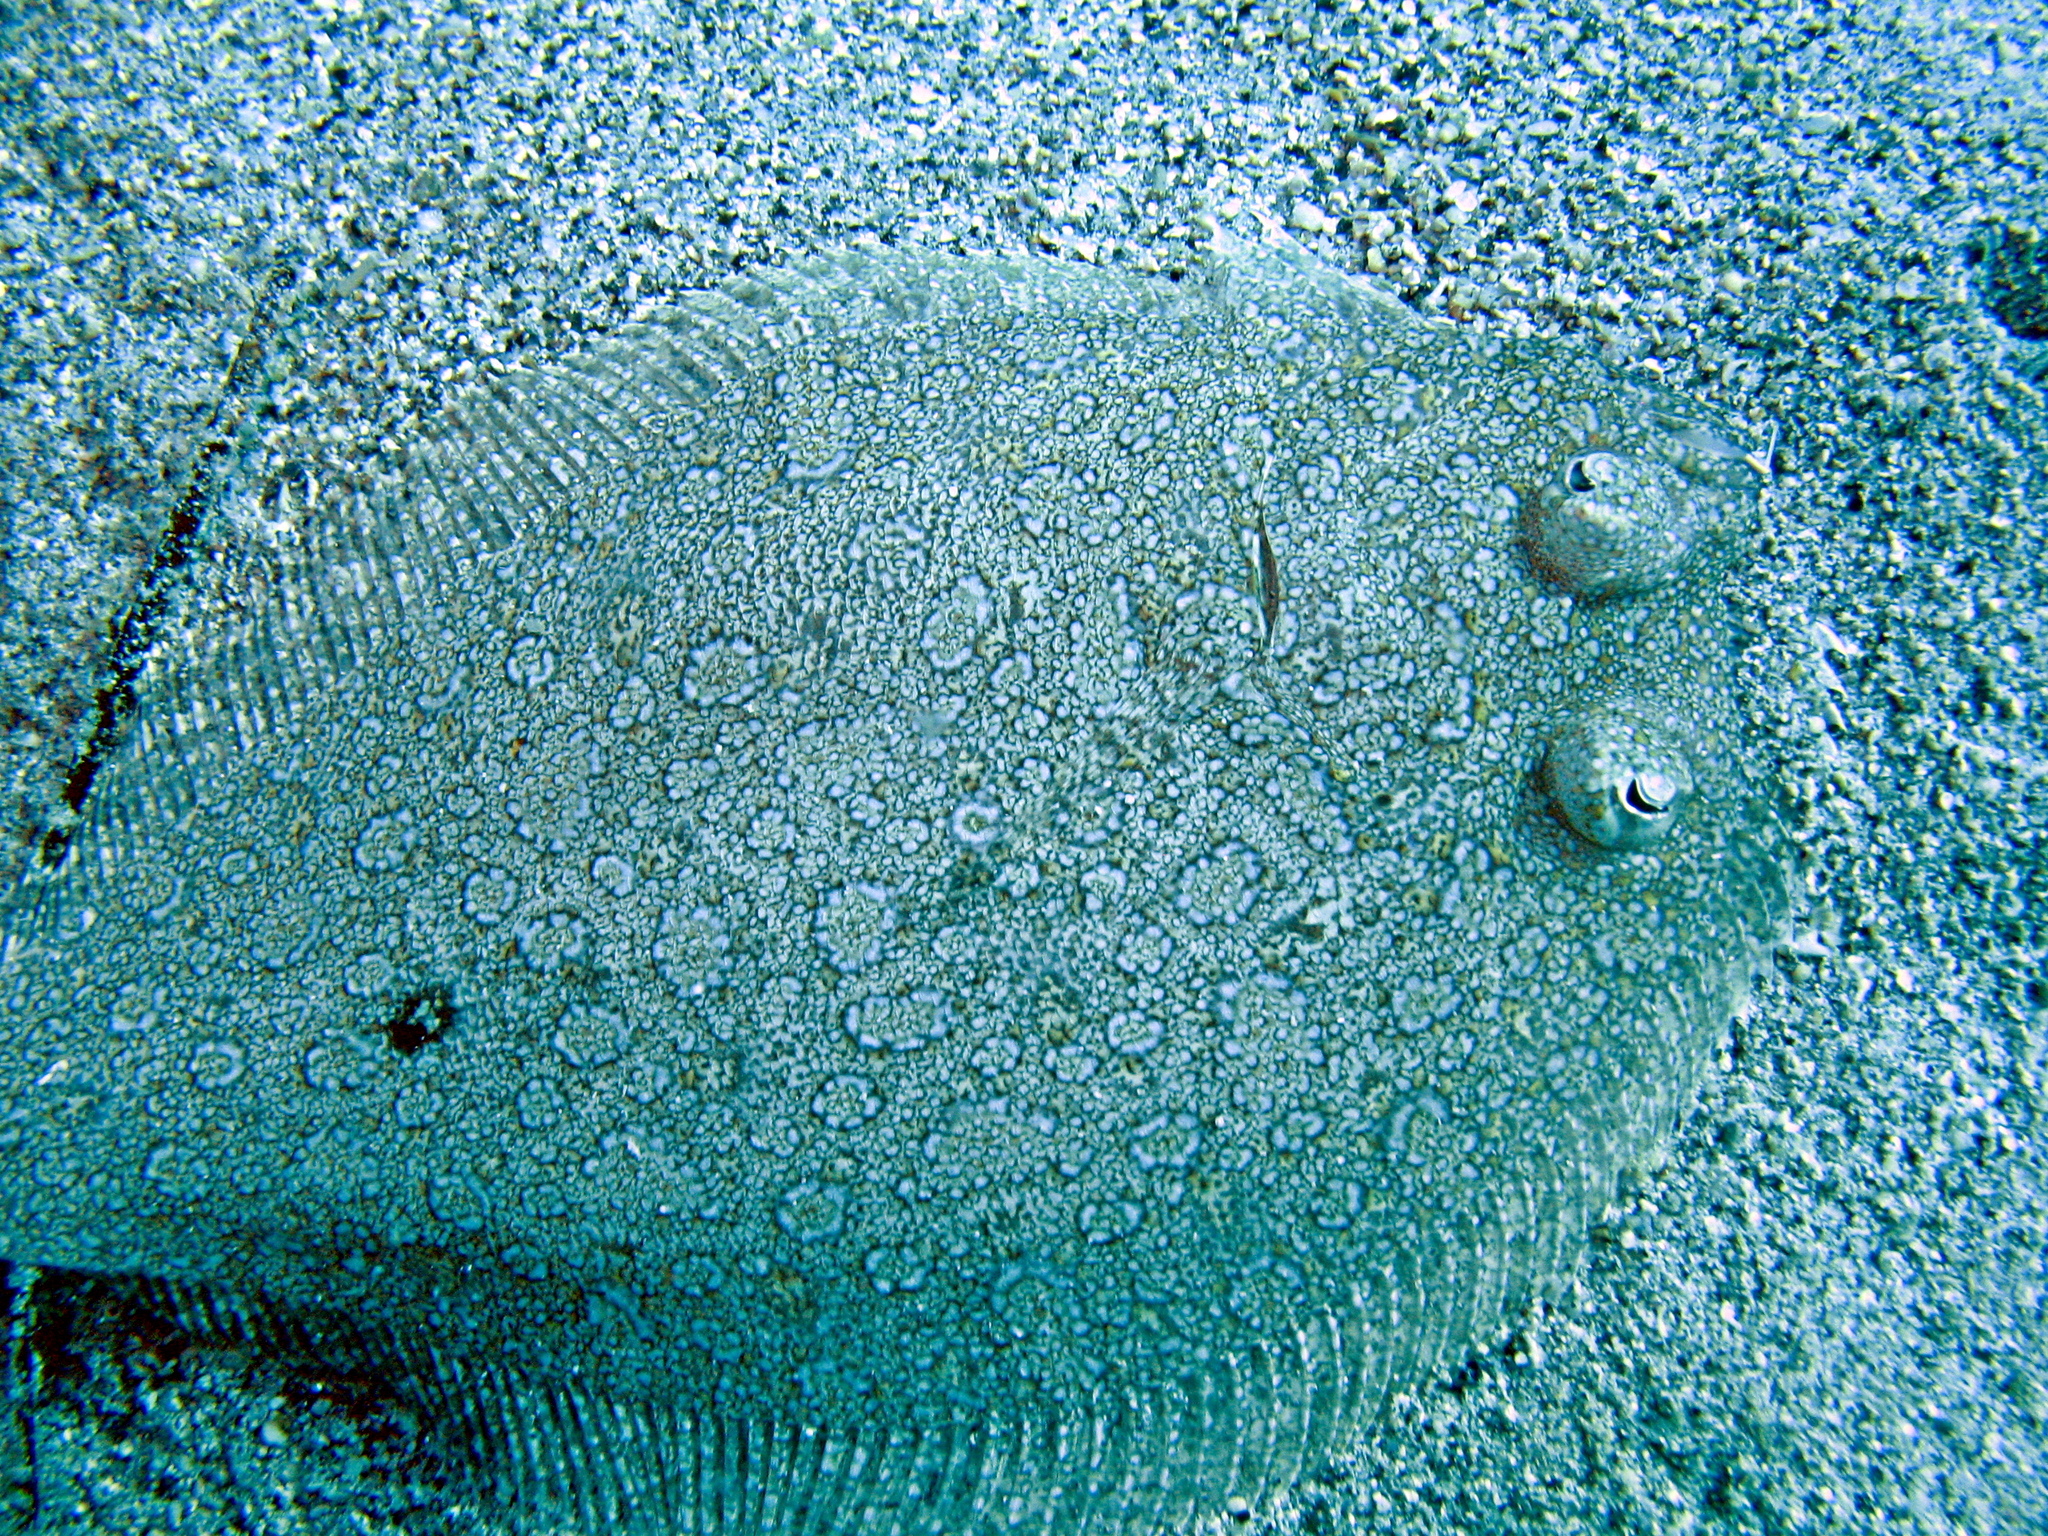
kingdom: Animalia
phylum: Chordata
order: Pleuronectiformes
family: Bothidae
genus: Bothus
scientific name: Bothus podas
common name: Wide-eyed flounder
